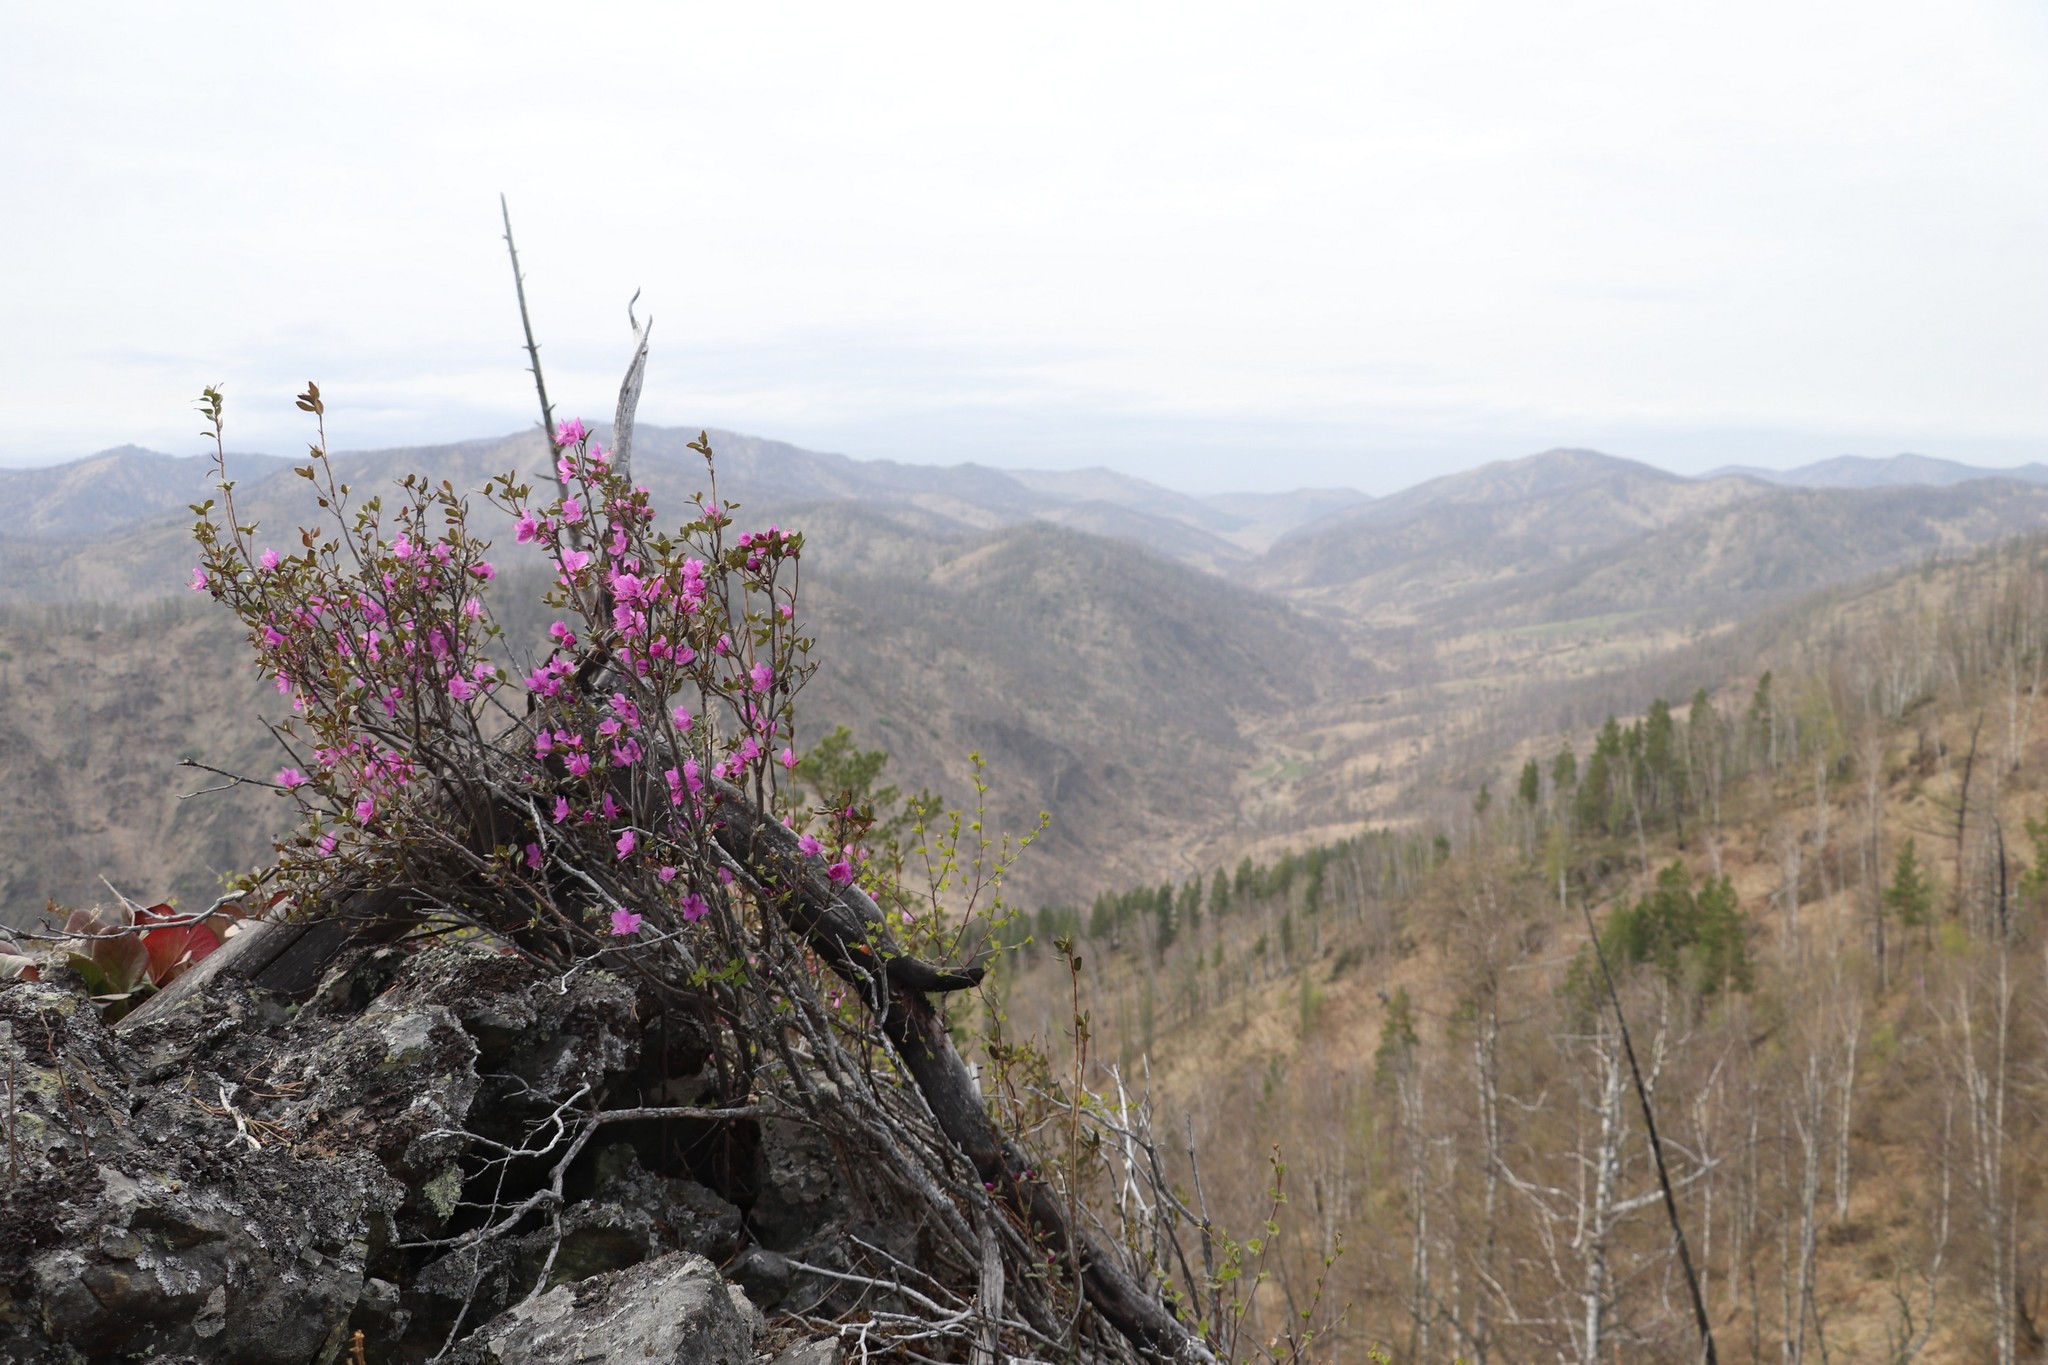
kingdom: Plantae
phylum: Tracheophyta
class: Magnoliopsida
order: Ericales
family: Ericaceae
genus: Rhododendron
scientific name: Rhododendron dauricum
